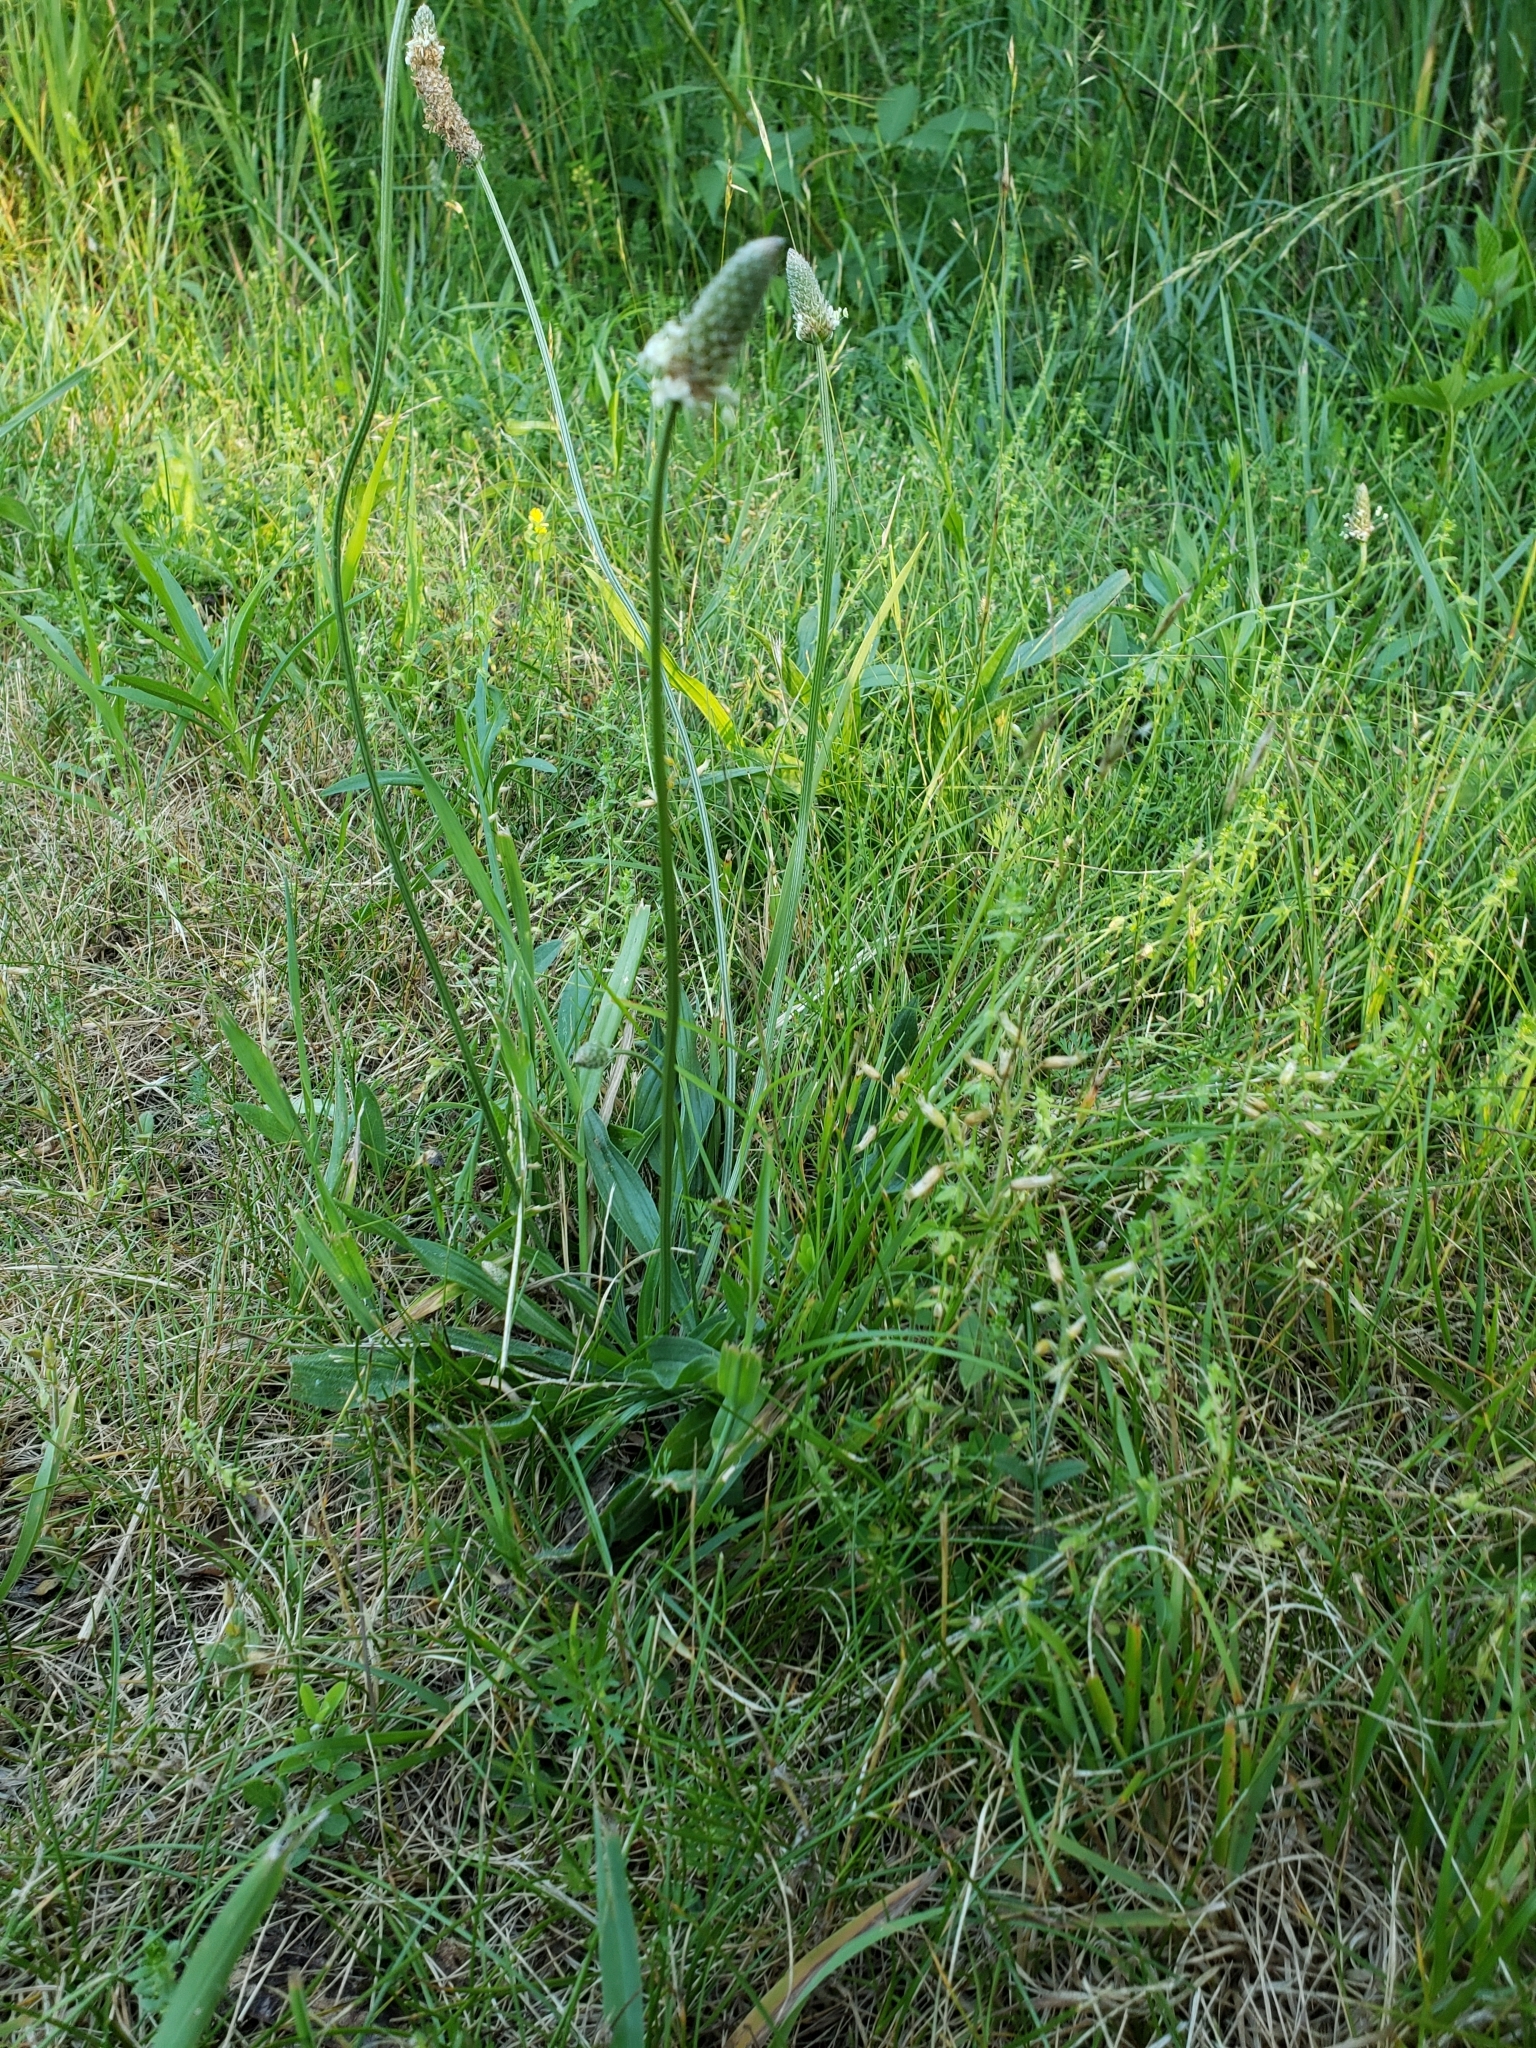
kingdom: Plantae
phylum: Tracheophyta
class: Magnoliopsida
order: Lamiales
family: Plantaginaceae
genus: Plantago
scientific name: Plantago lanceolata
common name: Ribwort plantain
